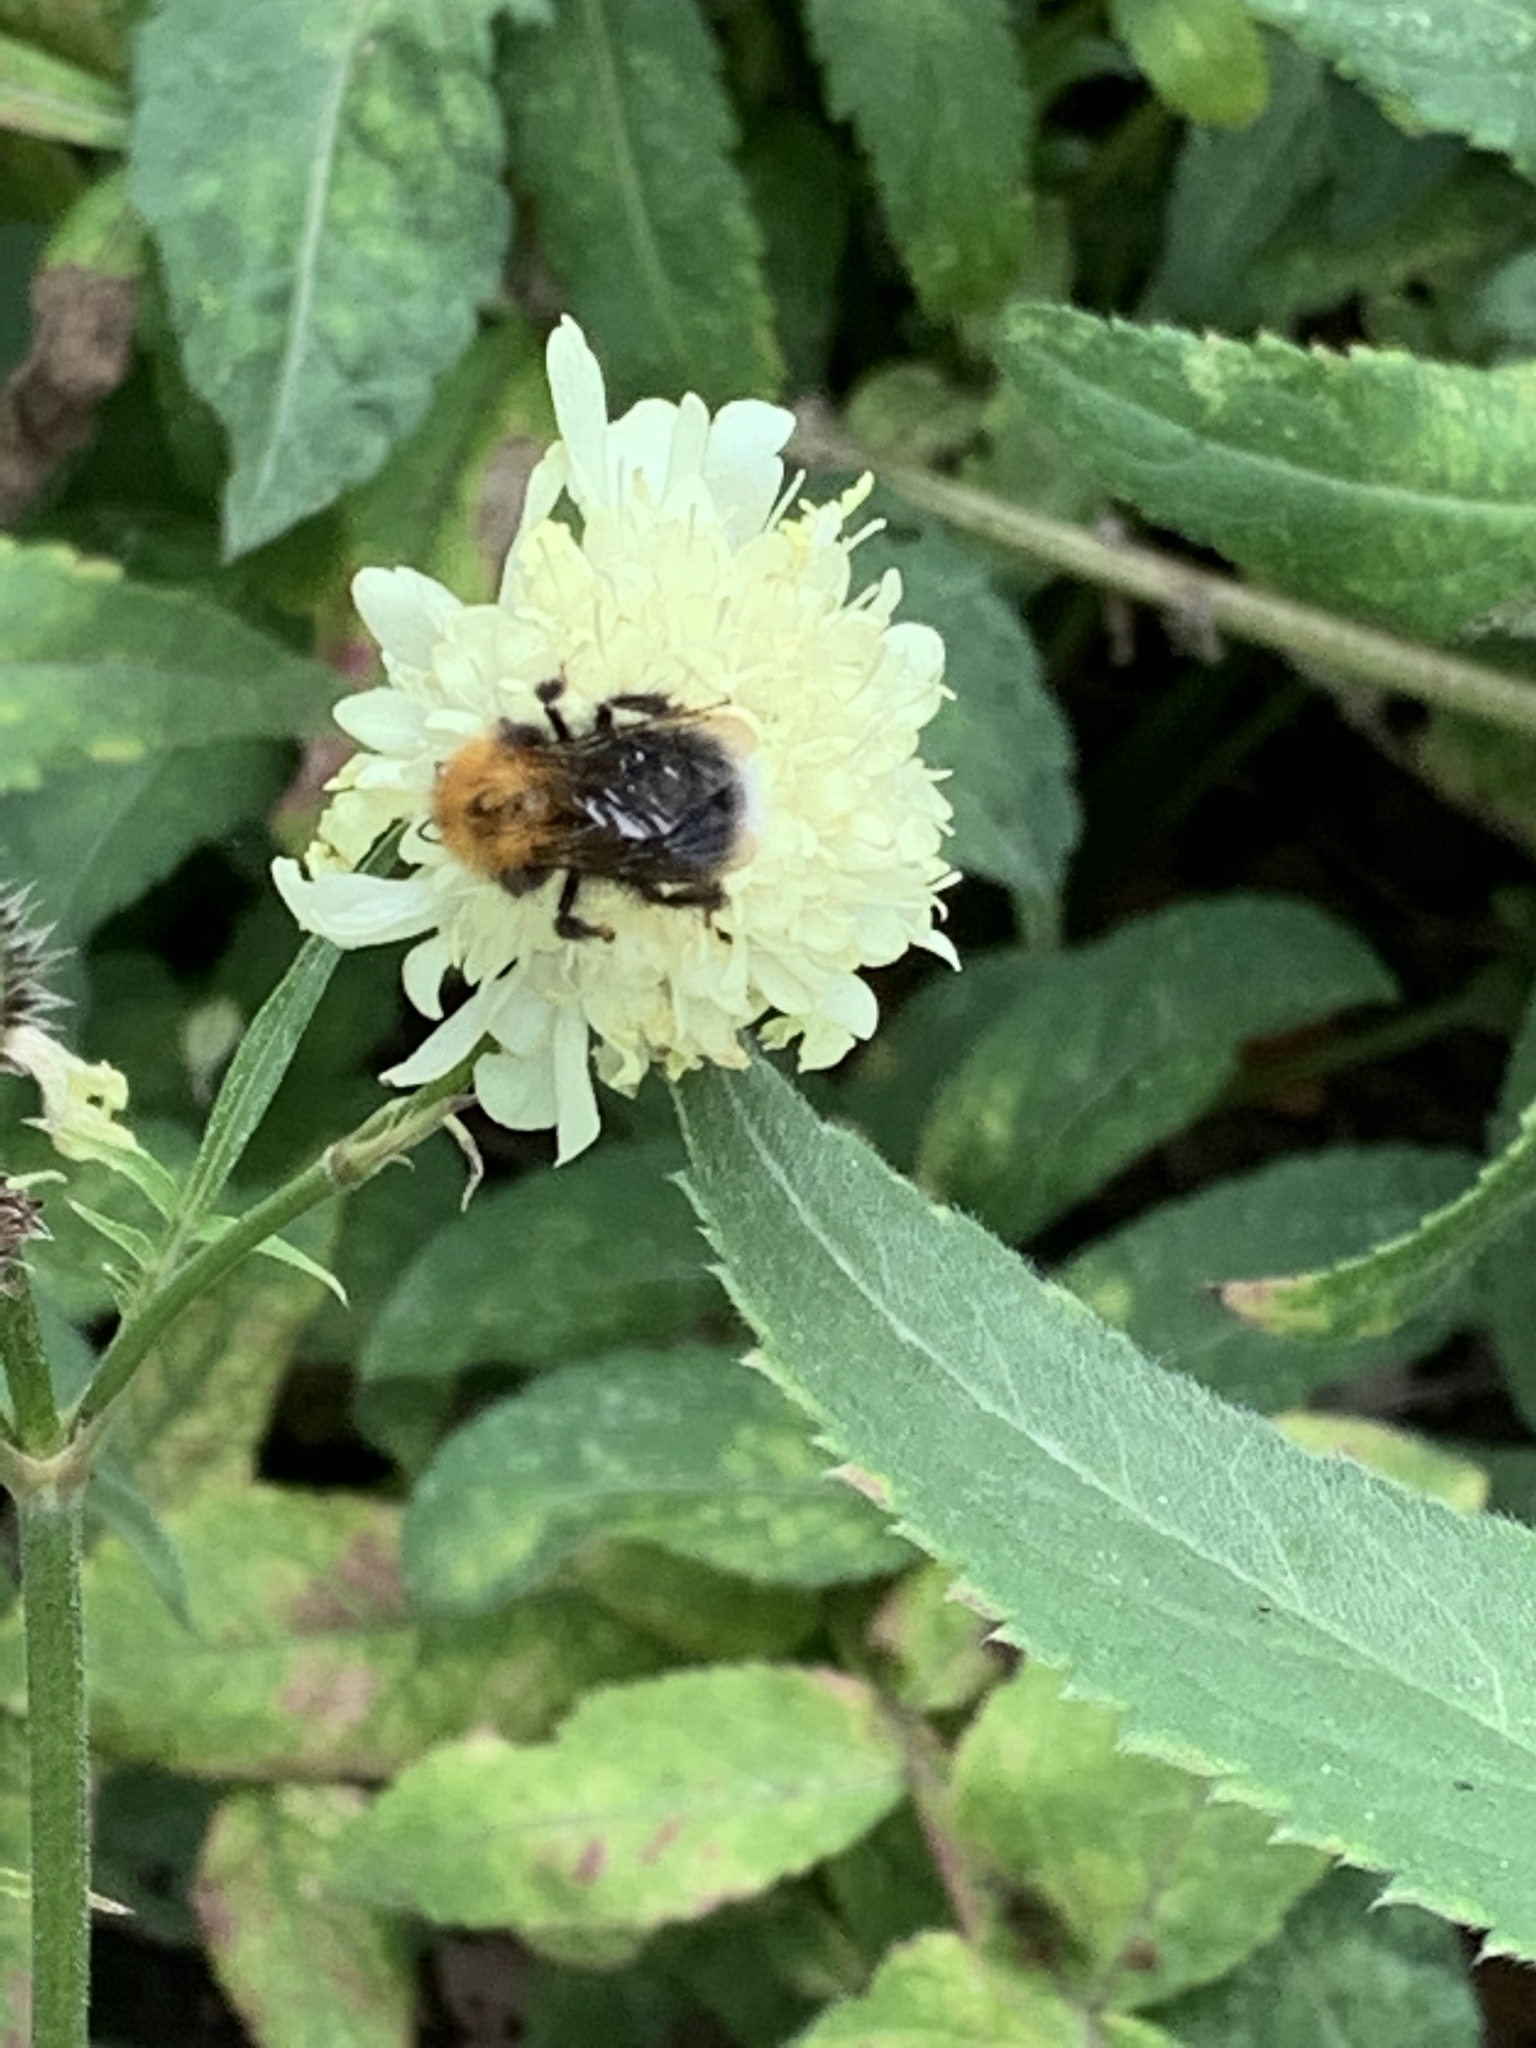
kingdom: Animalia
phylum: Arthropoda
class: Insecta
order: Hymenoptera
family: Apidae
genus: Bombus
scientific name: Bombus hypnorum
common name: New garden bumblebee
